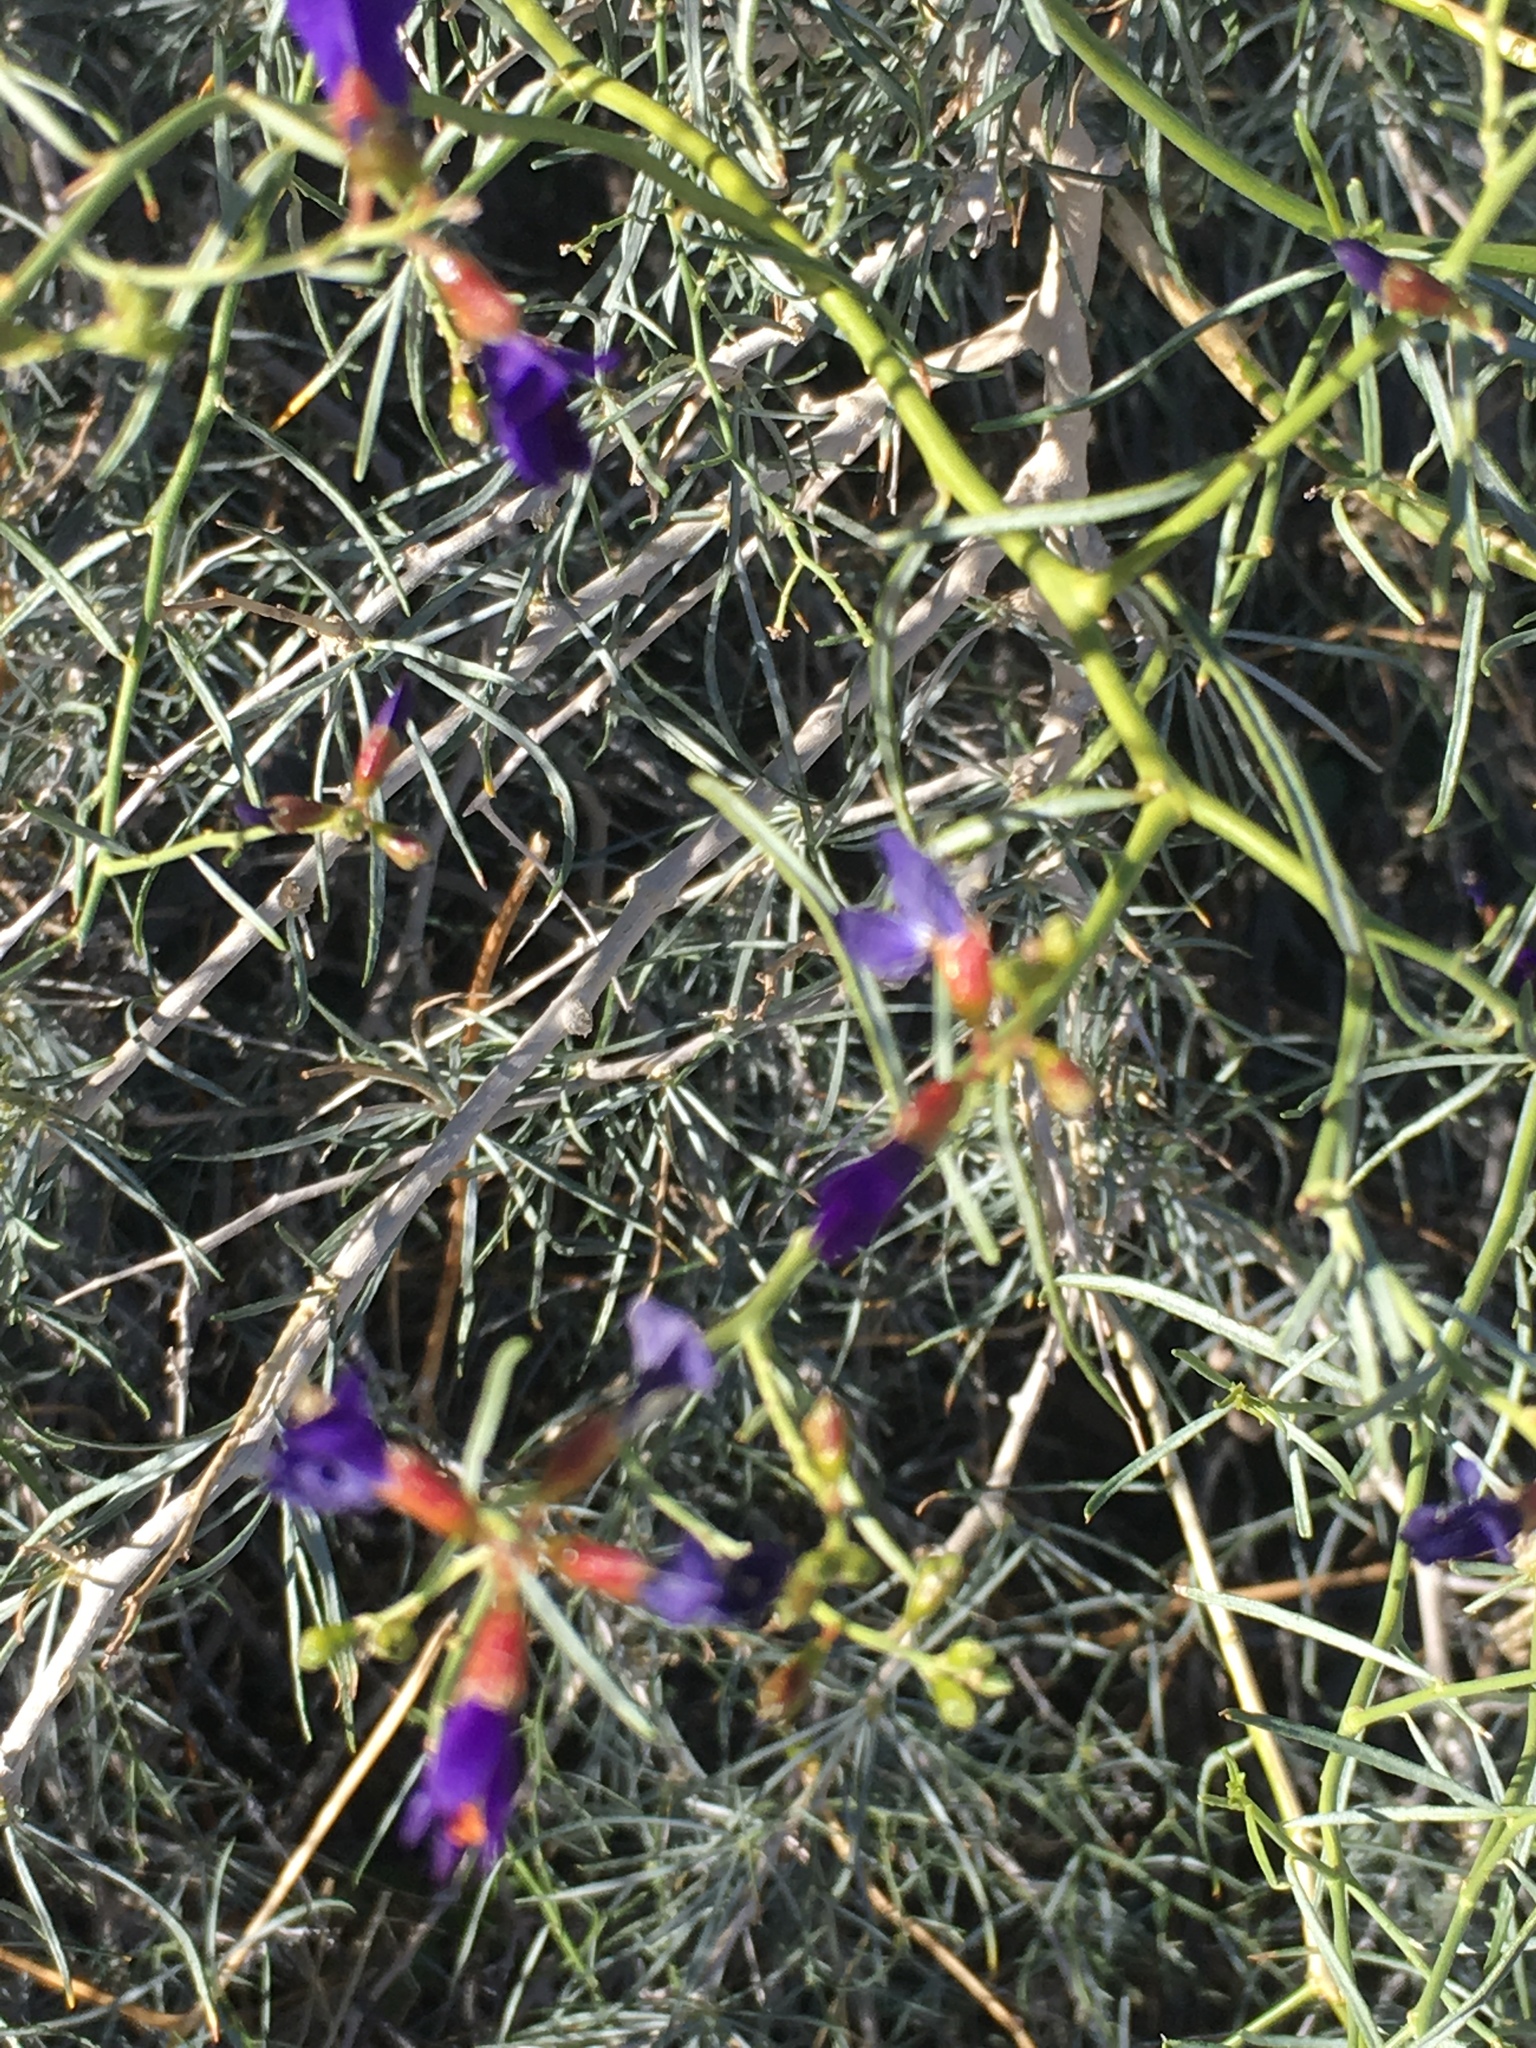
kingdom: Plantae
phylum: Tracheophyta
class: Magnoliopsida
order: Fabales
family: Fabaceae
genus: Psorothamnus
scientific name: Psorothamnus schottii
